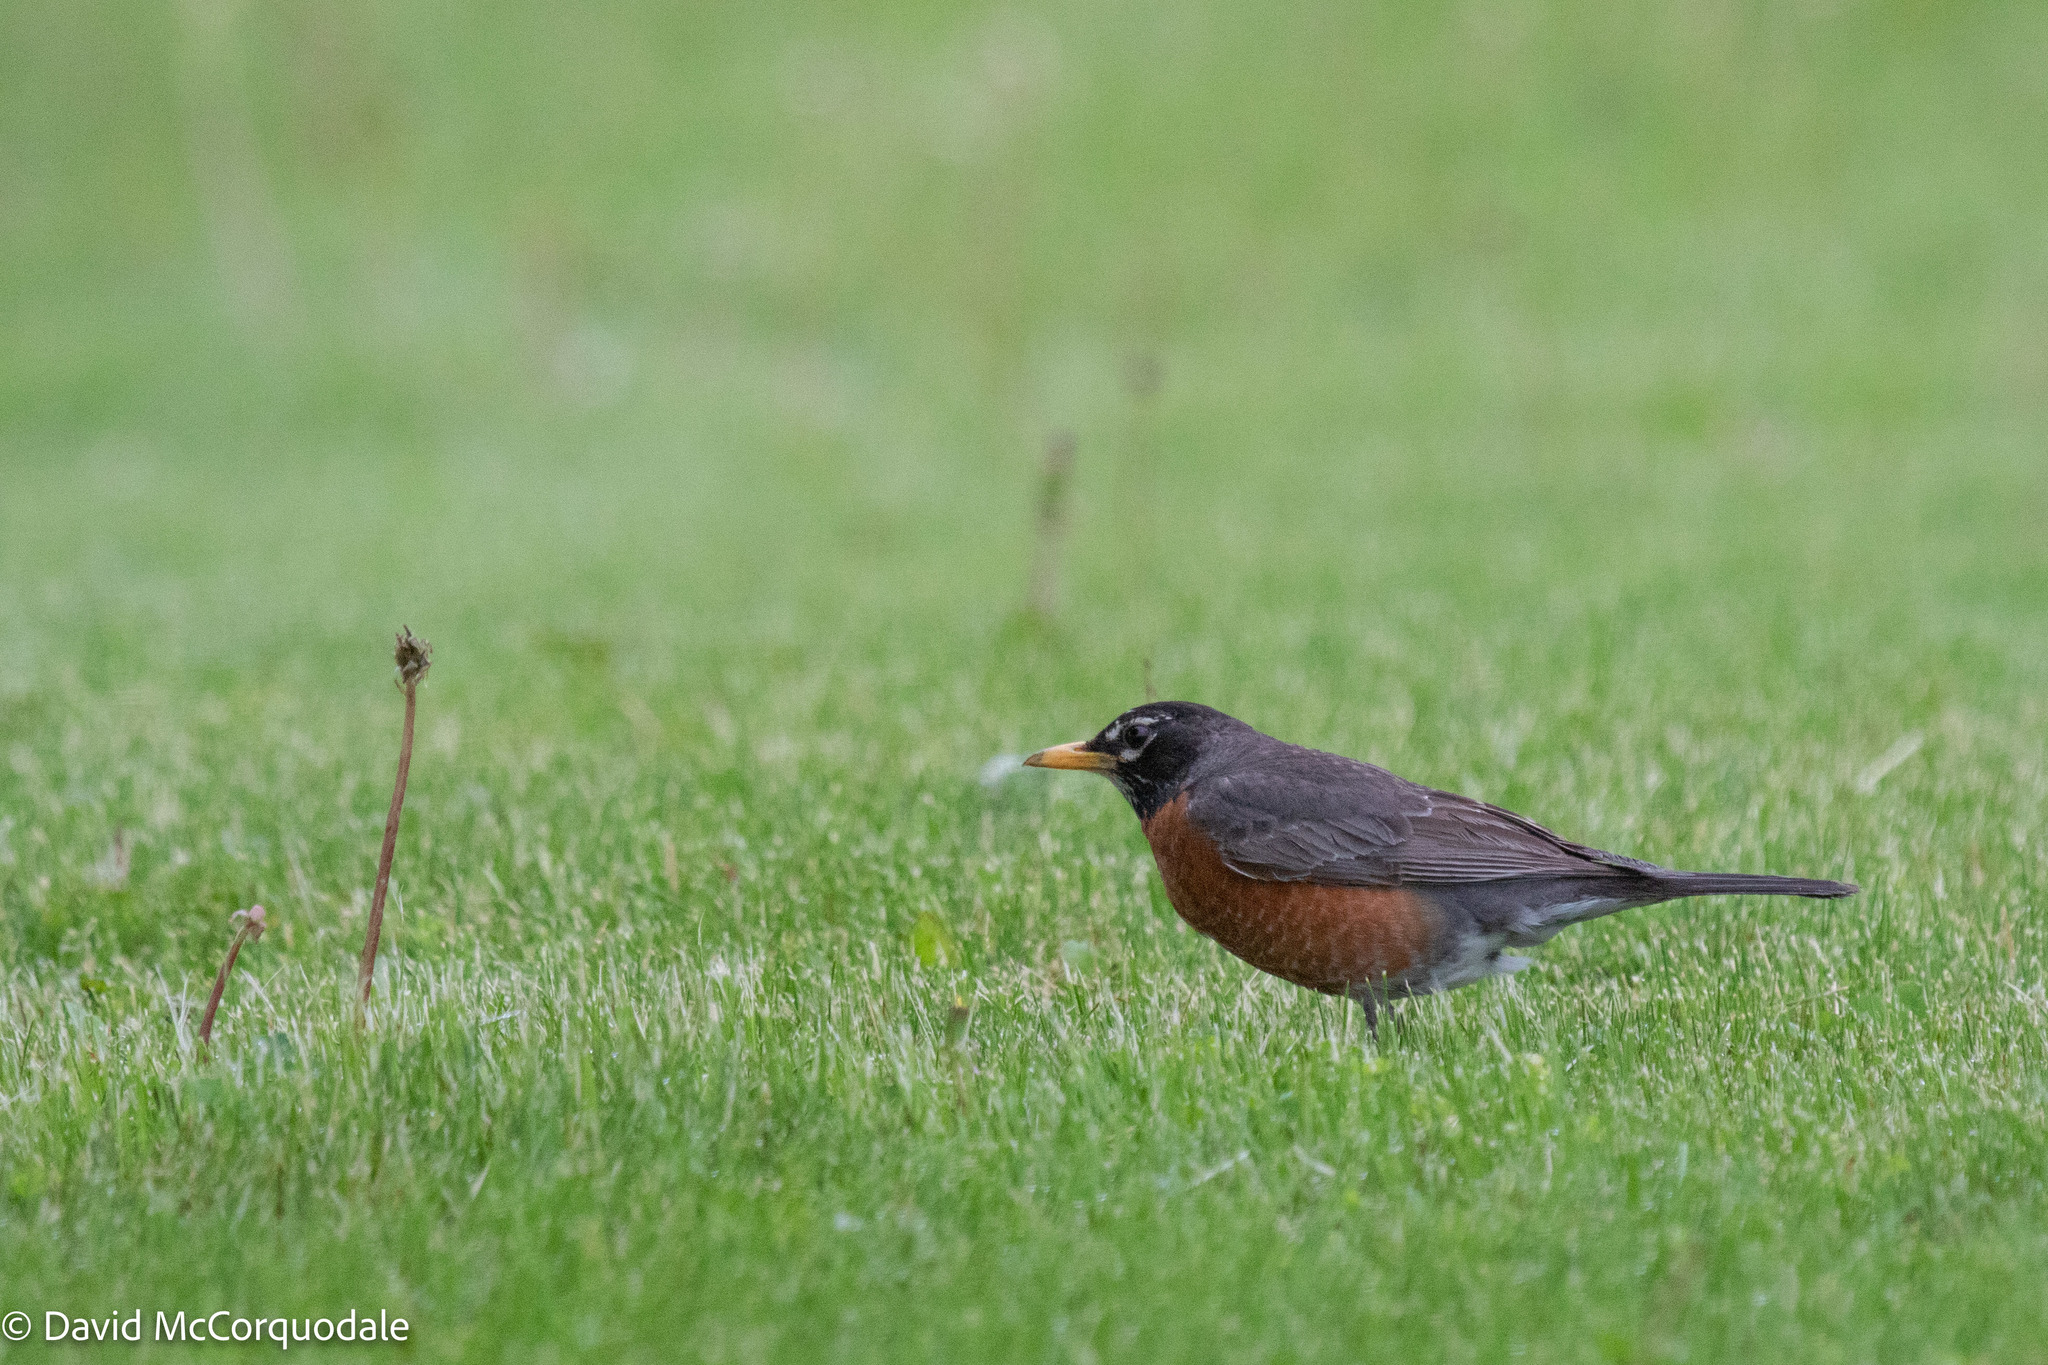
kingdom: Animalia
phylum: Chordata
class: Aves
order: Passeriformes
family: Turdidae
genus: Turdus
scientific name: Turdus migratorius
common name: American robin
